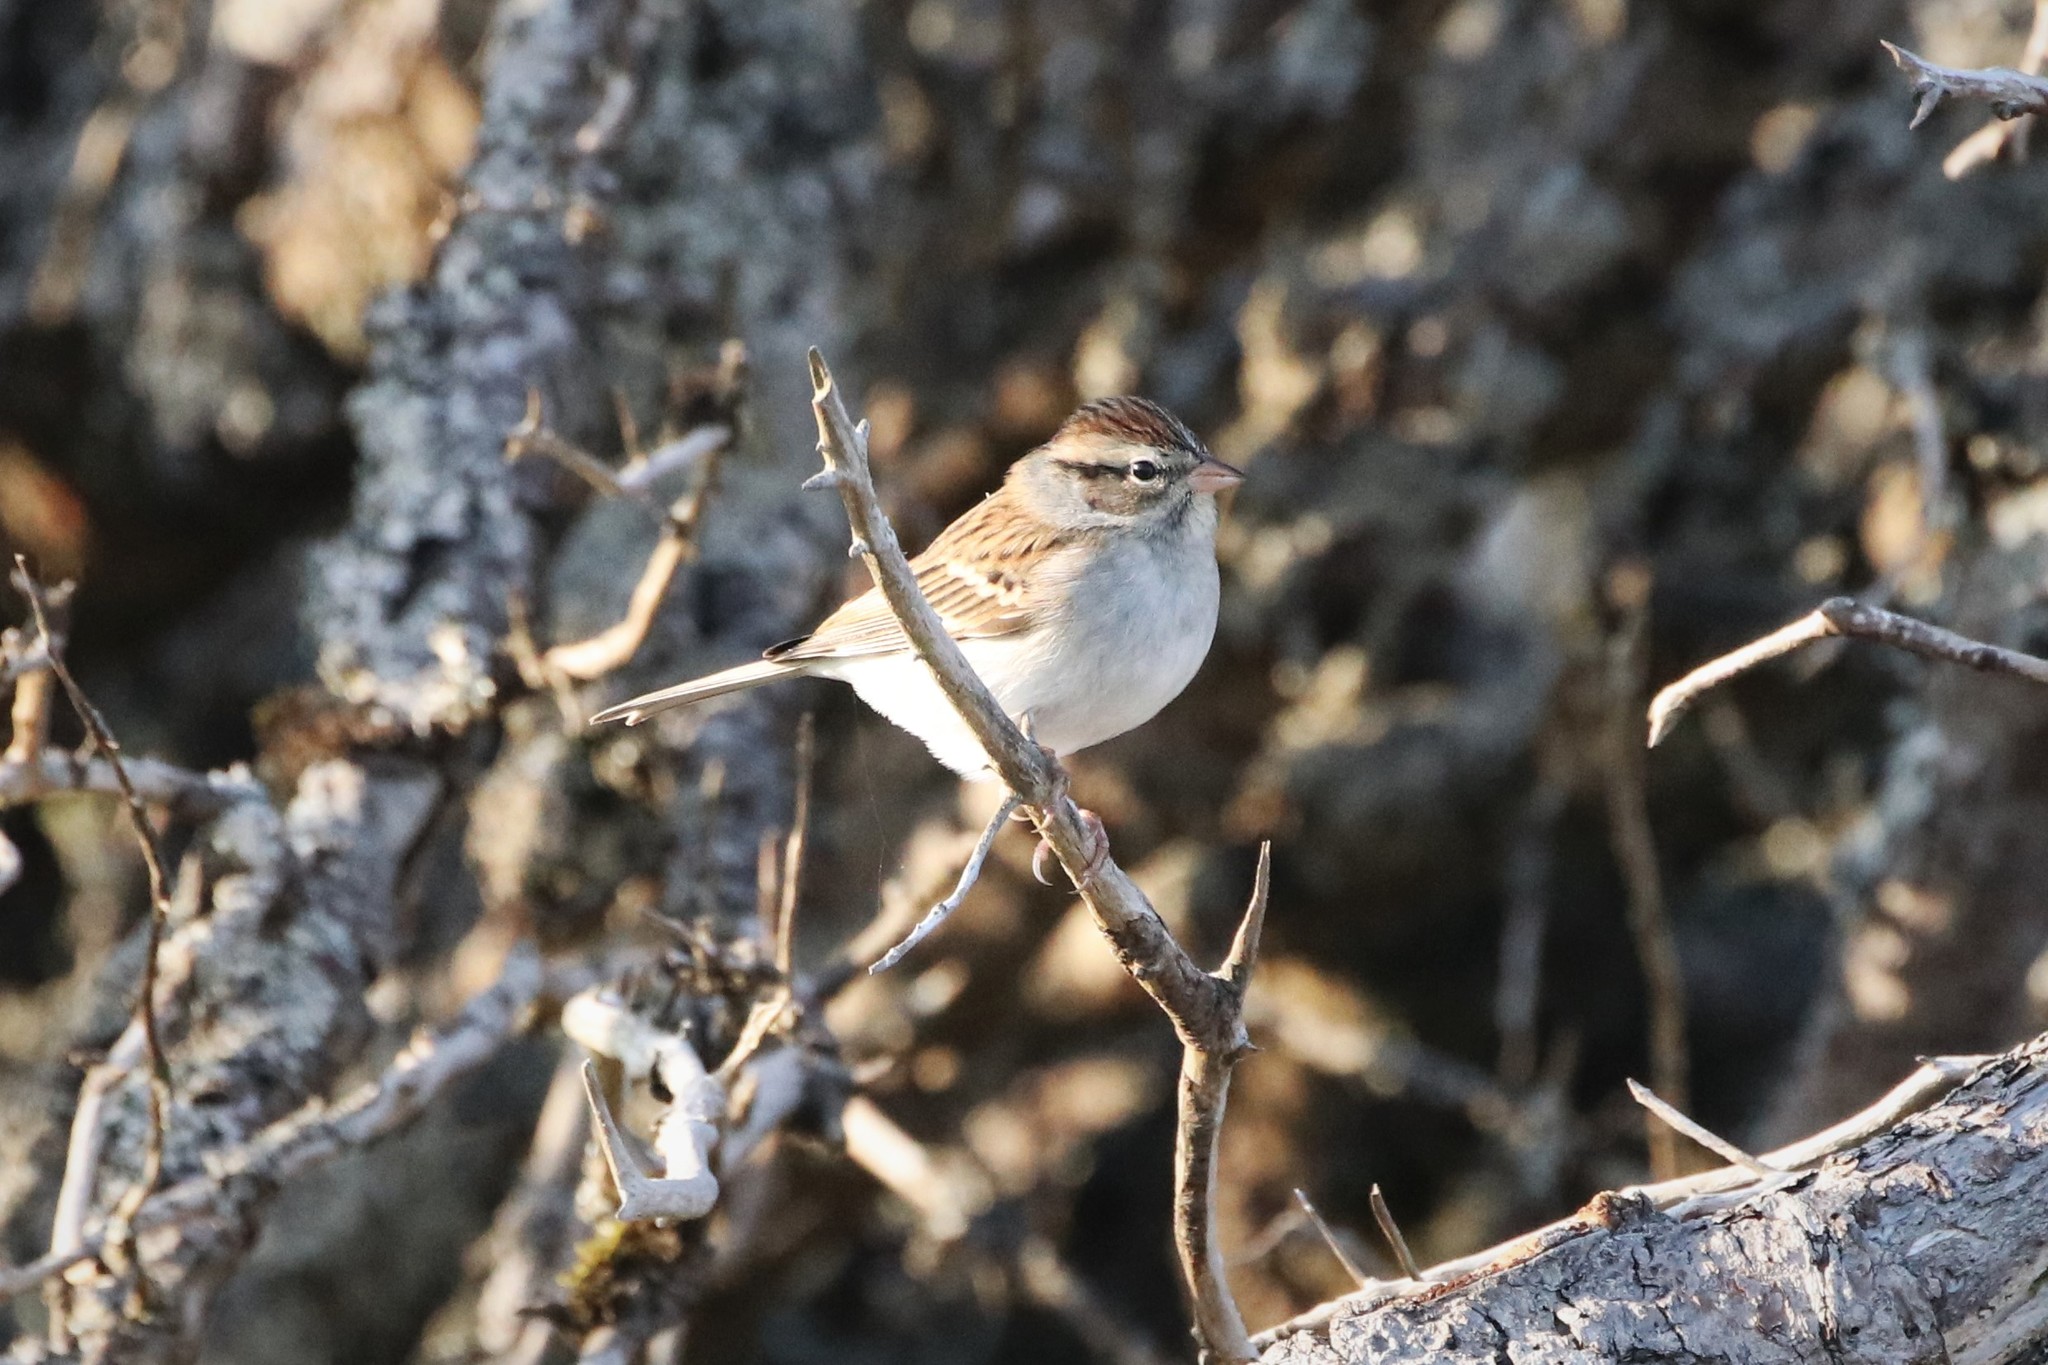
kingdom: Animalia
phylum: Chordata
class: Aves
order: Passeriformes
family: Passerellidae
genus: Spizella
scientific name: Spizella passerina
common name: Chipping sparrow
